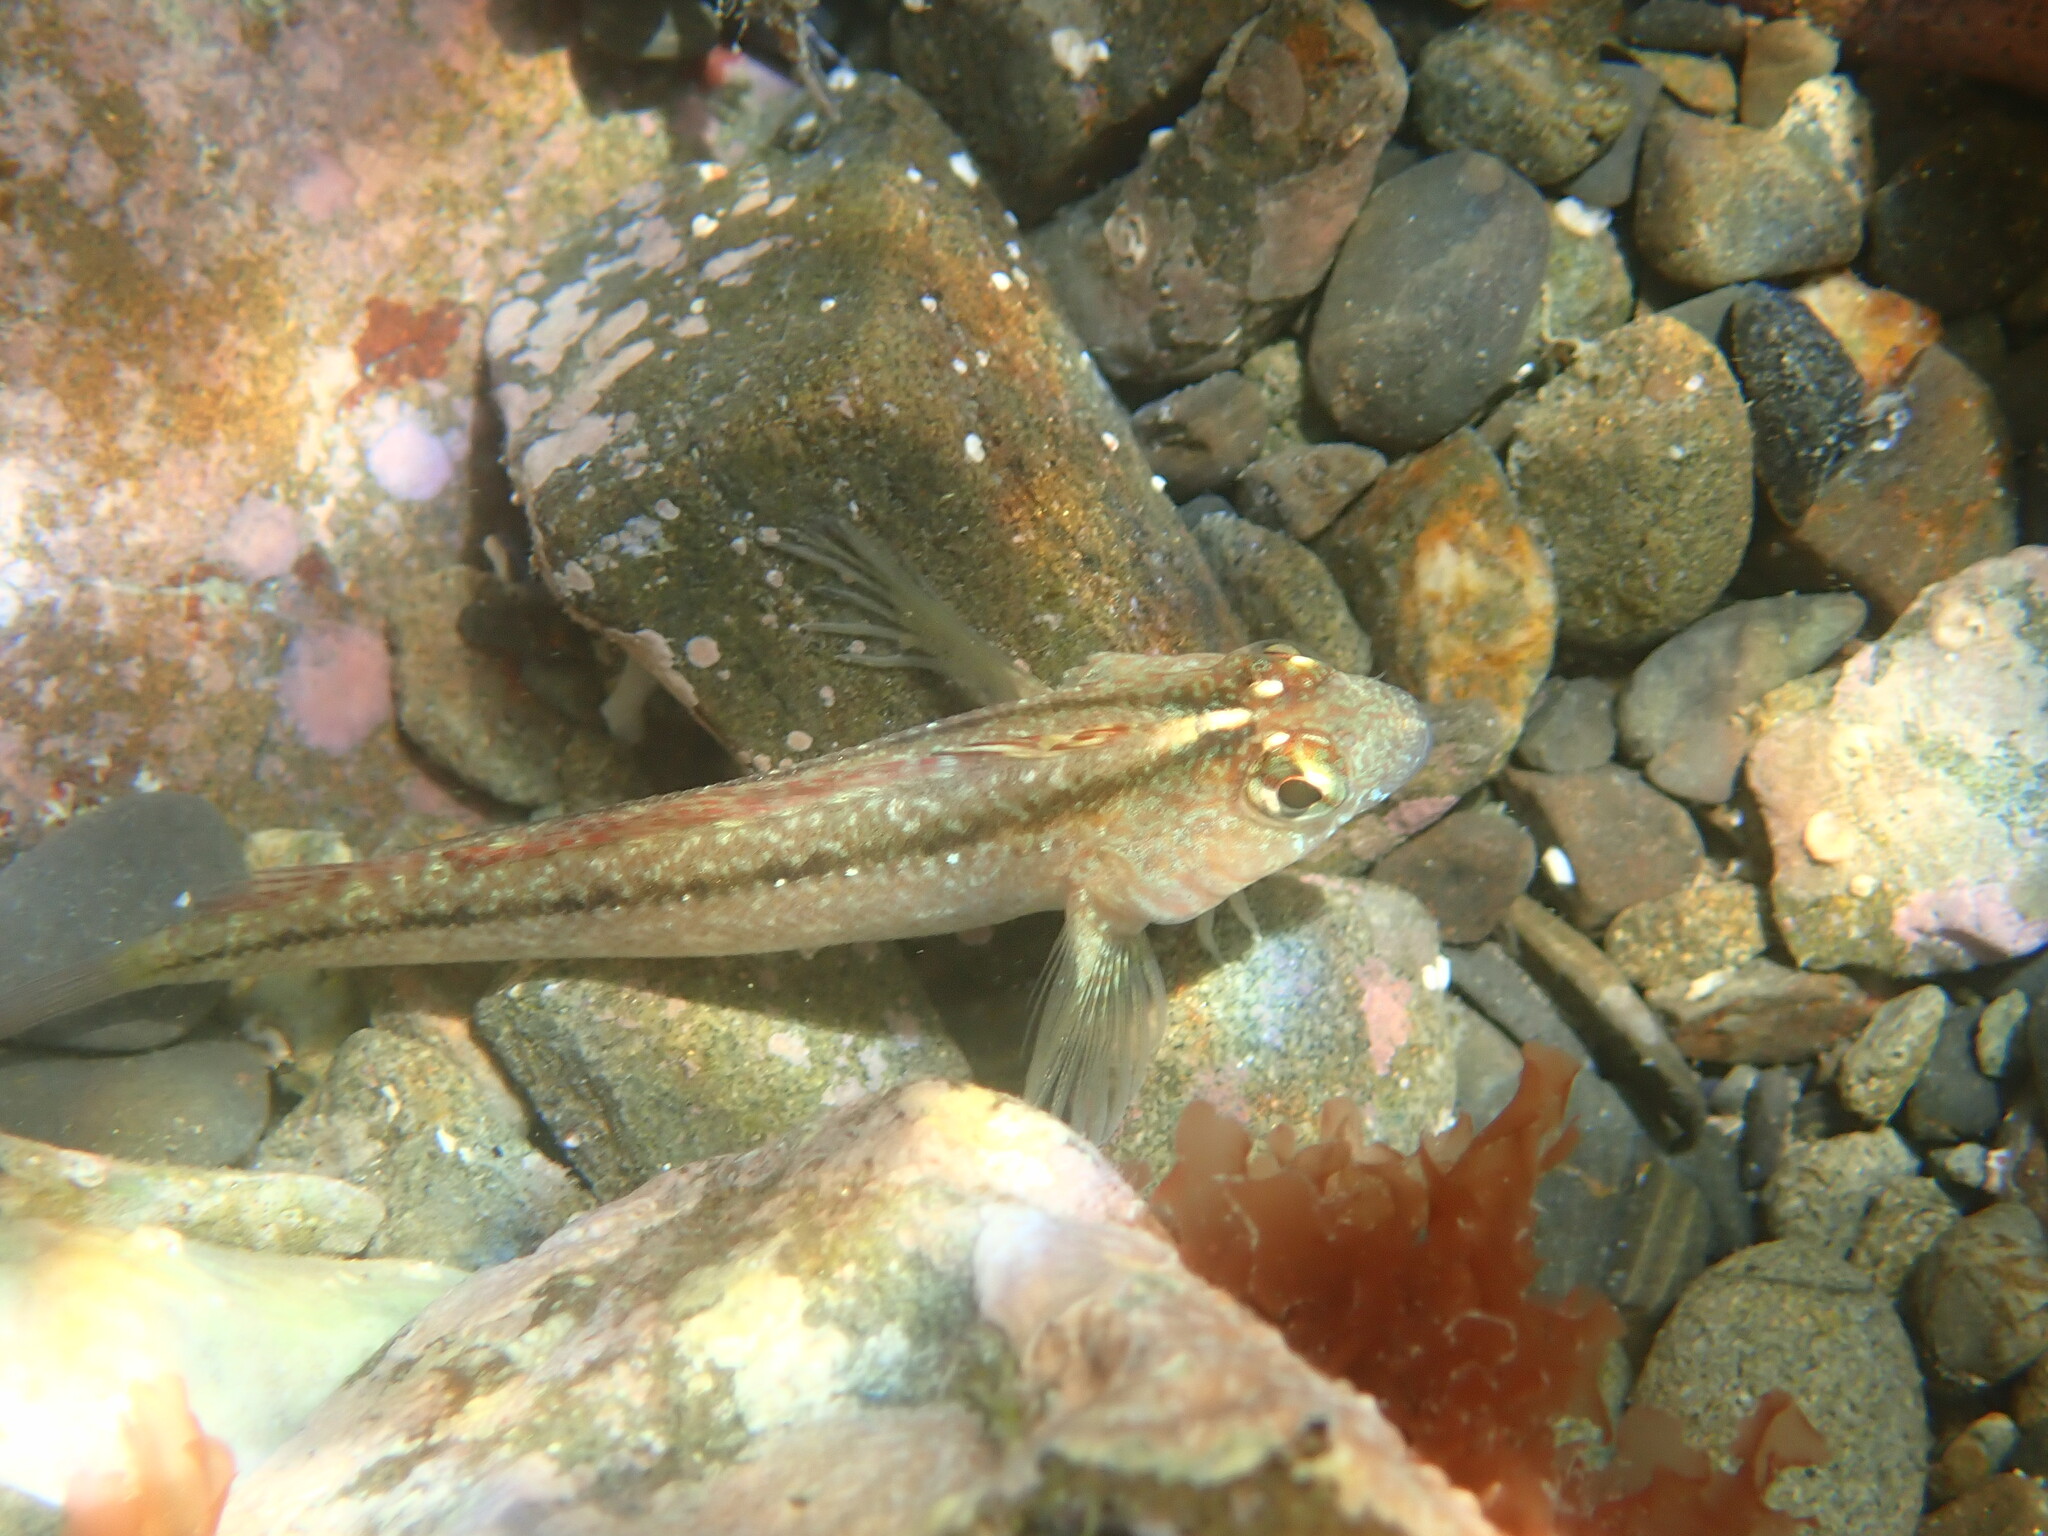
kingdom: Animalia
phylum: Chordata
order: Perciformes
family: Tripterygiidae
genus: Forsterygion
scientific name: Forsterygion lapillum
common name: Common triplefin
